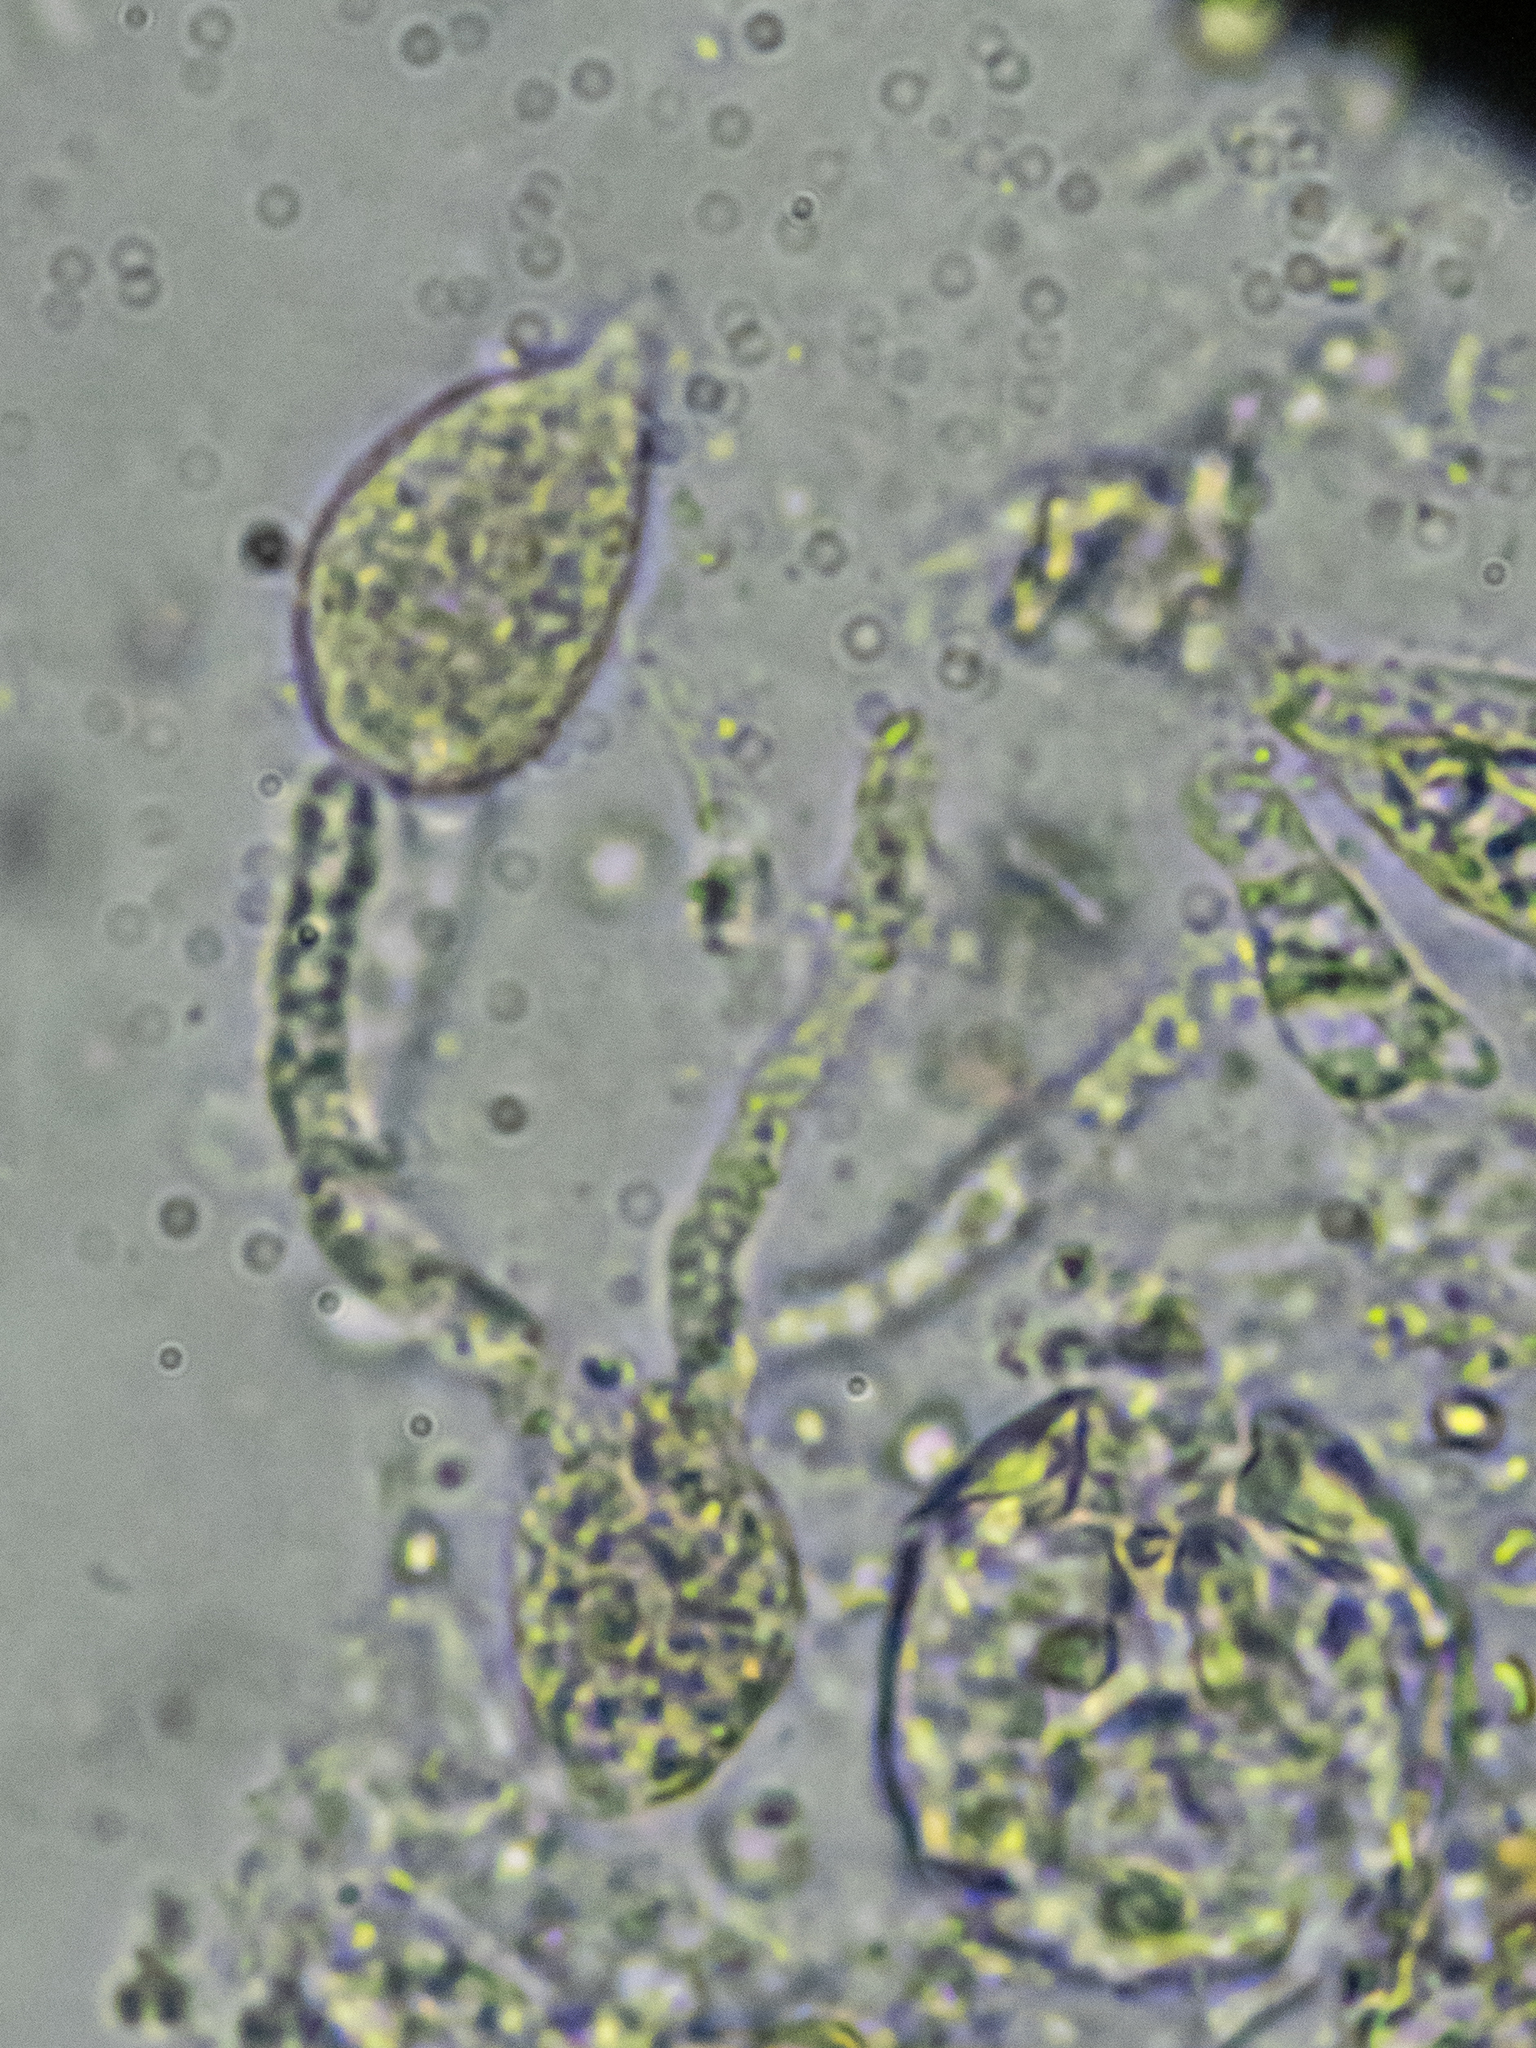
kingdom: Fungi
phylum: Basidiomycota
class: Agaricomycetes
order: Auriculariales
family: Auriculariaceae
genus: Alloexidiopsis
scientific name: Alloexidiopsis calcea
